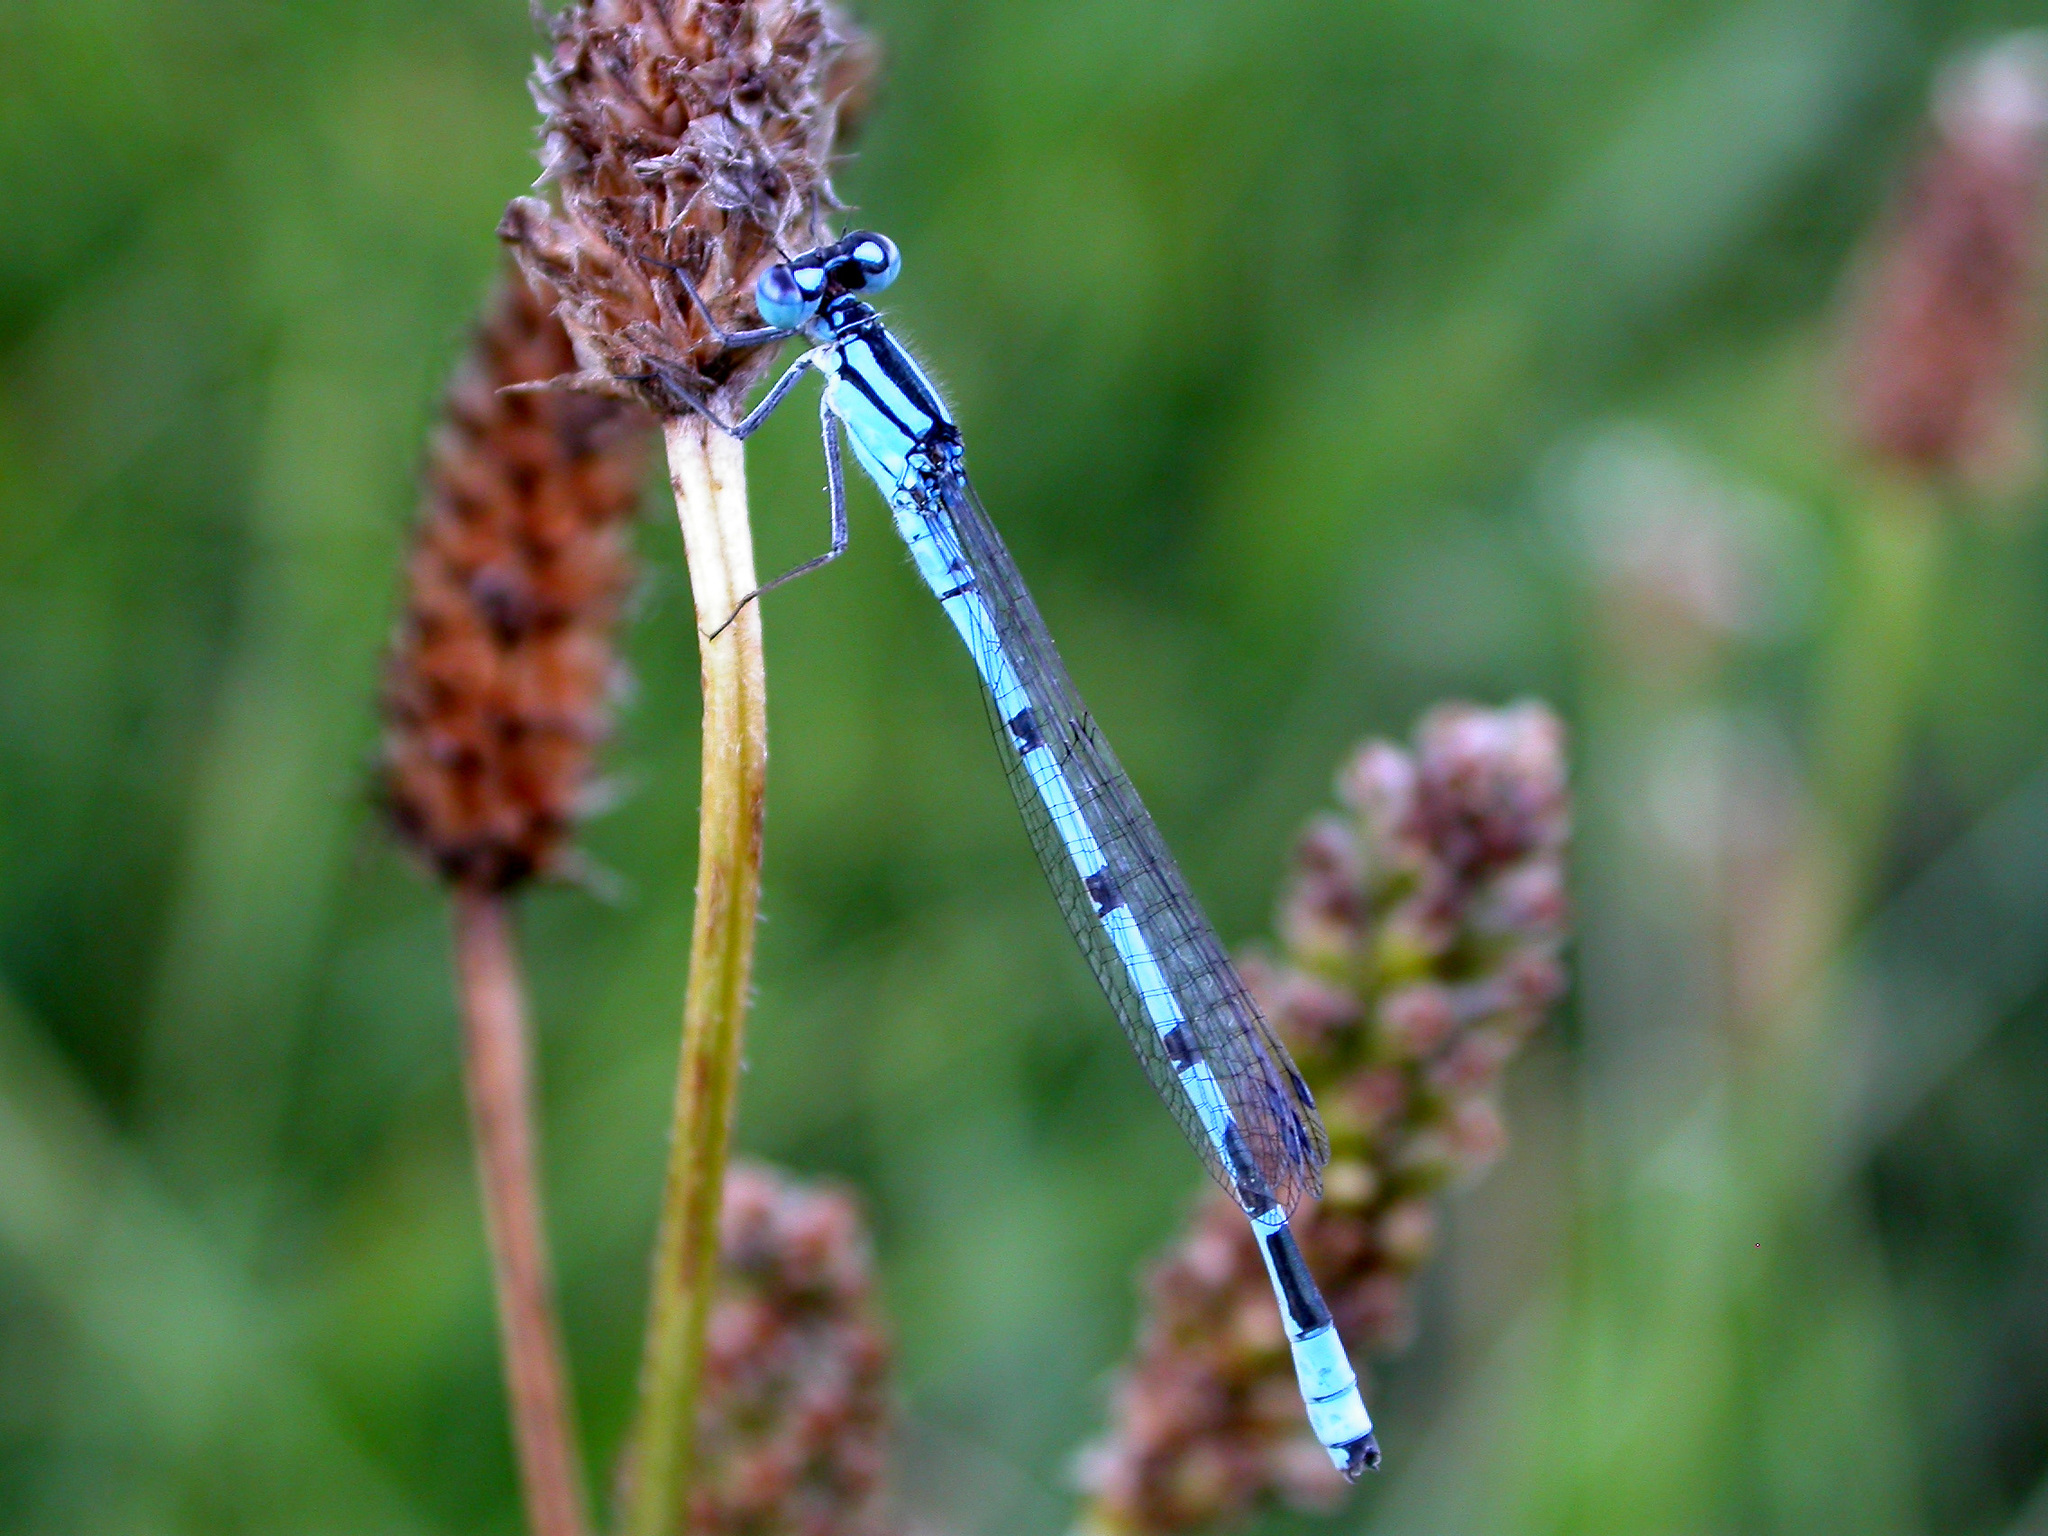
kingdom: Animalia
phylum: Arthropoda
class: Insecta
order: Odonata
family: Coenagrionidae
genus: Enallagma
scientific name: Enallagma cyathigerum
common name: Common blue damselfly
